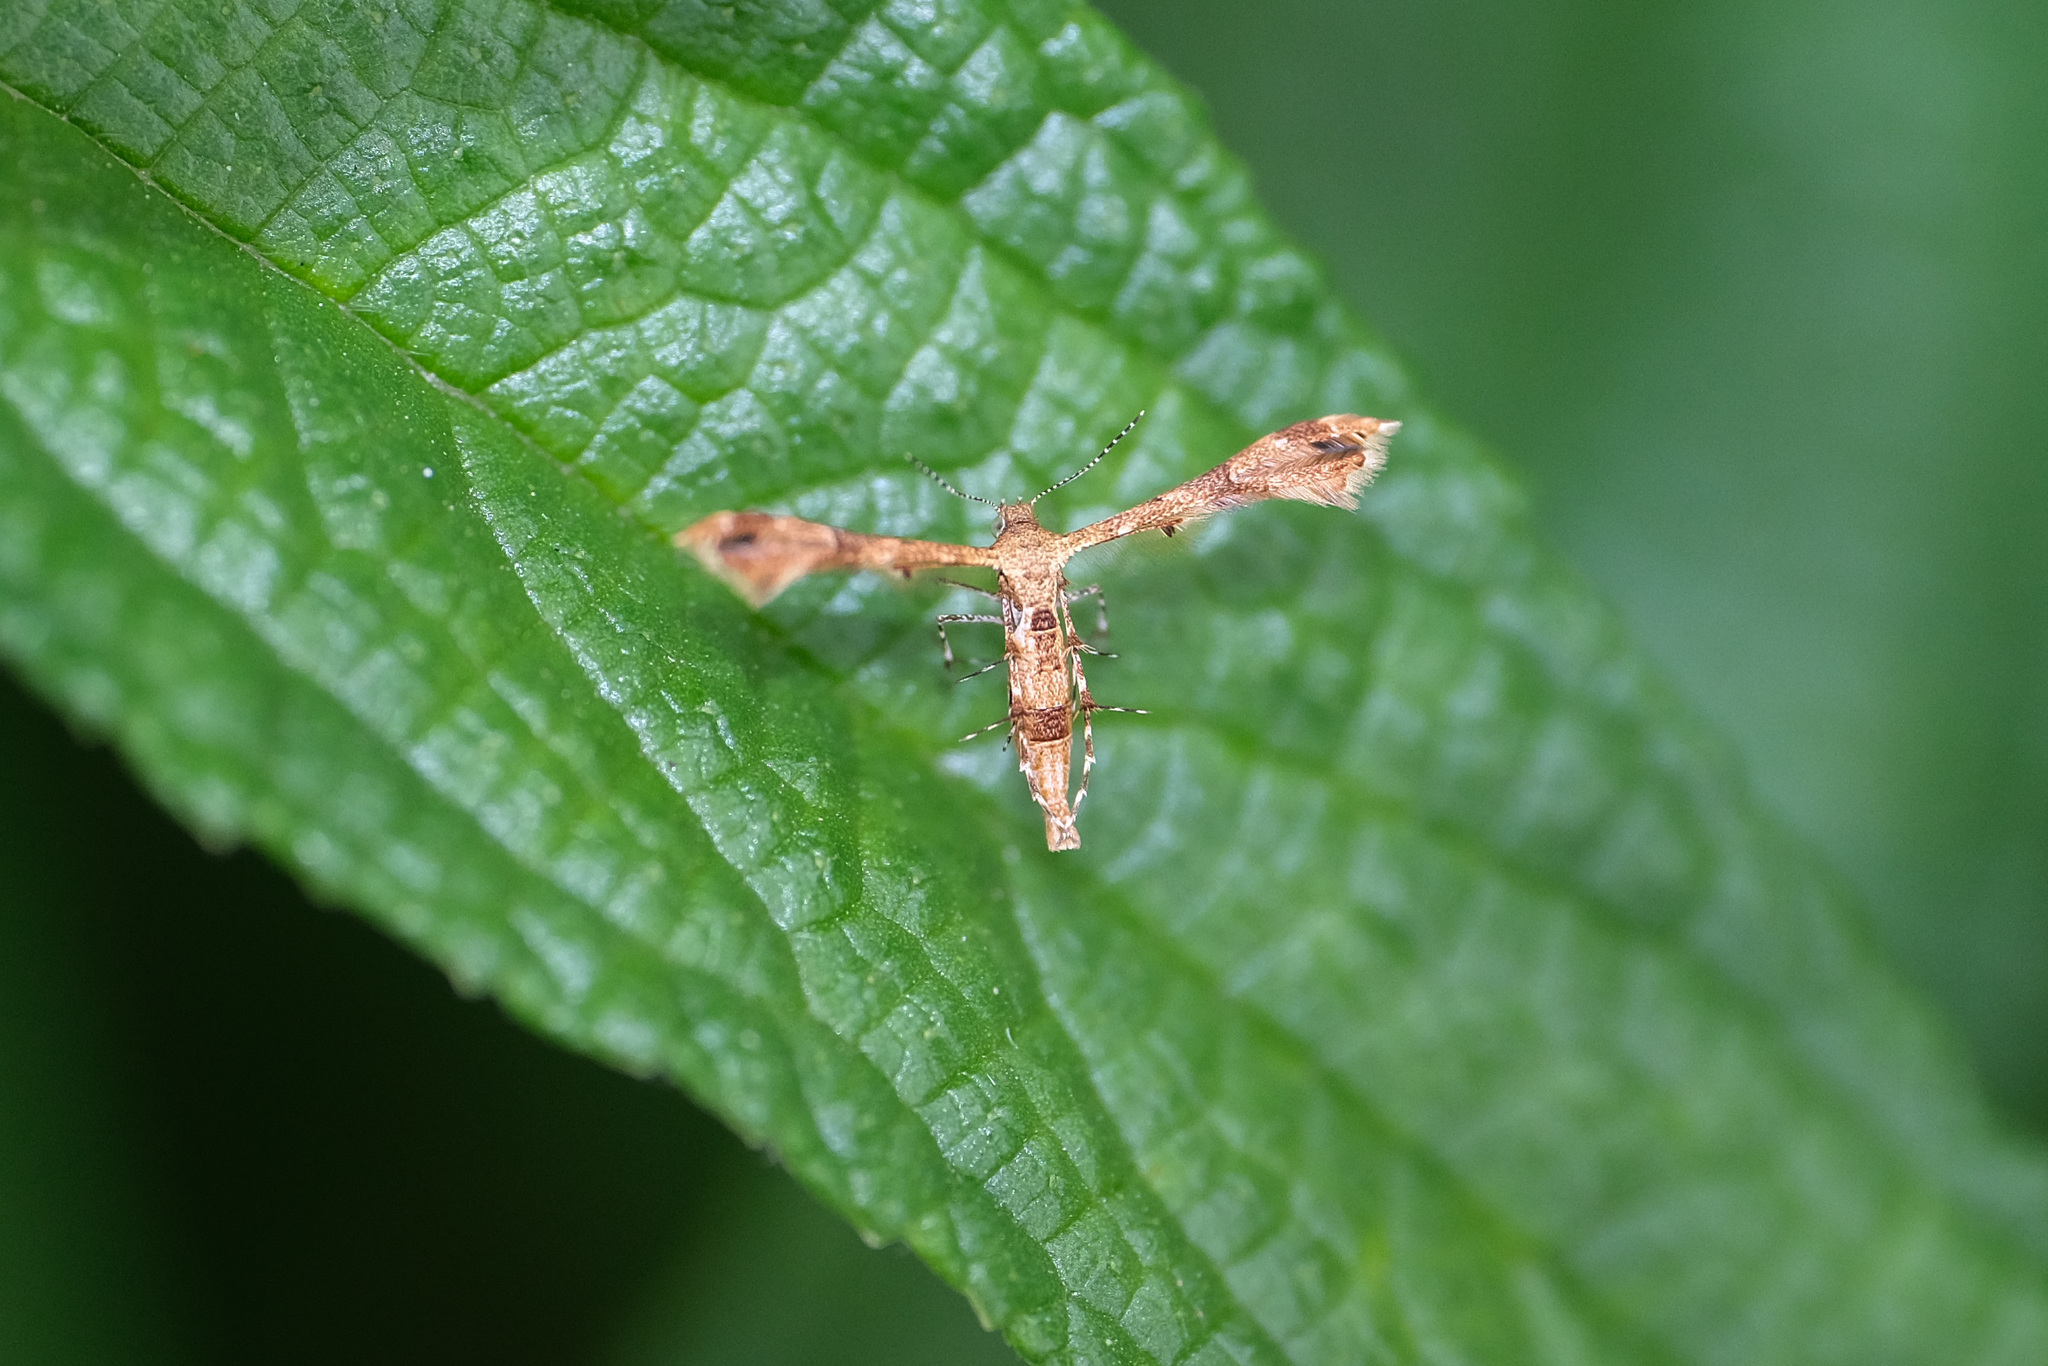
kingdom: Animalia
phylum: Arthropoda
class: Insecta
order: Lepidoptera
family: Pterophoridae
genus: Nippoptilia
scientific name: Nippoptilia cinctipedalis
